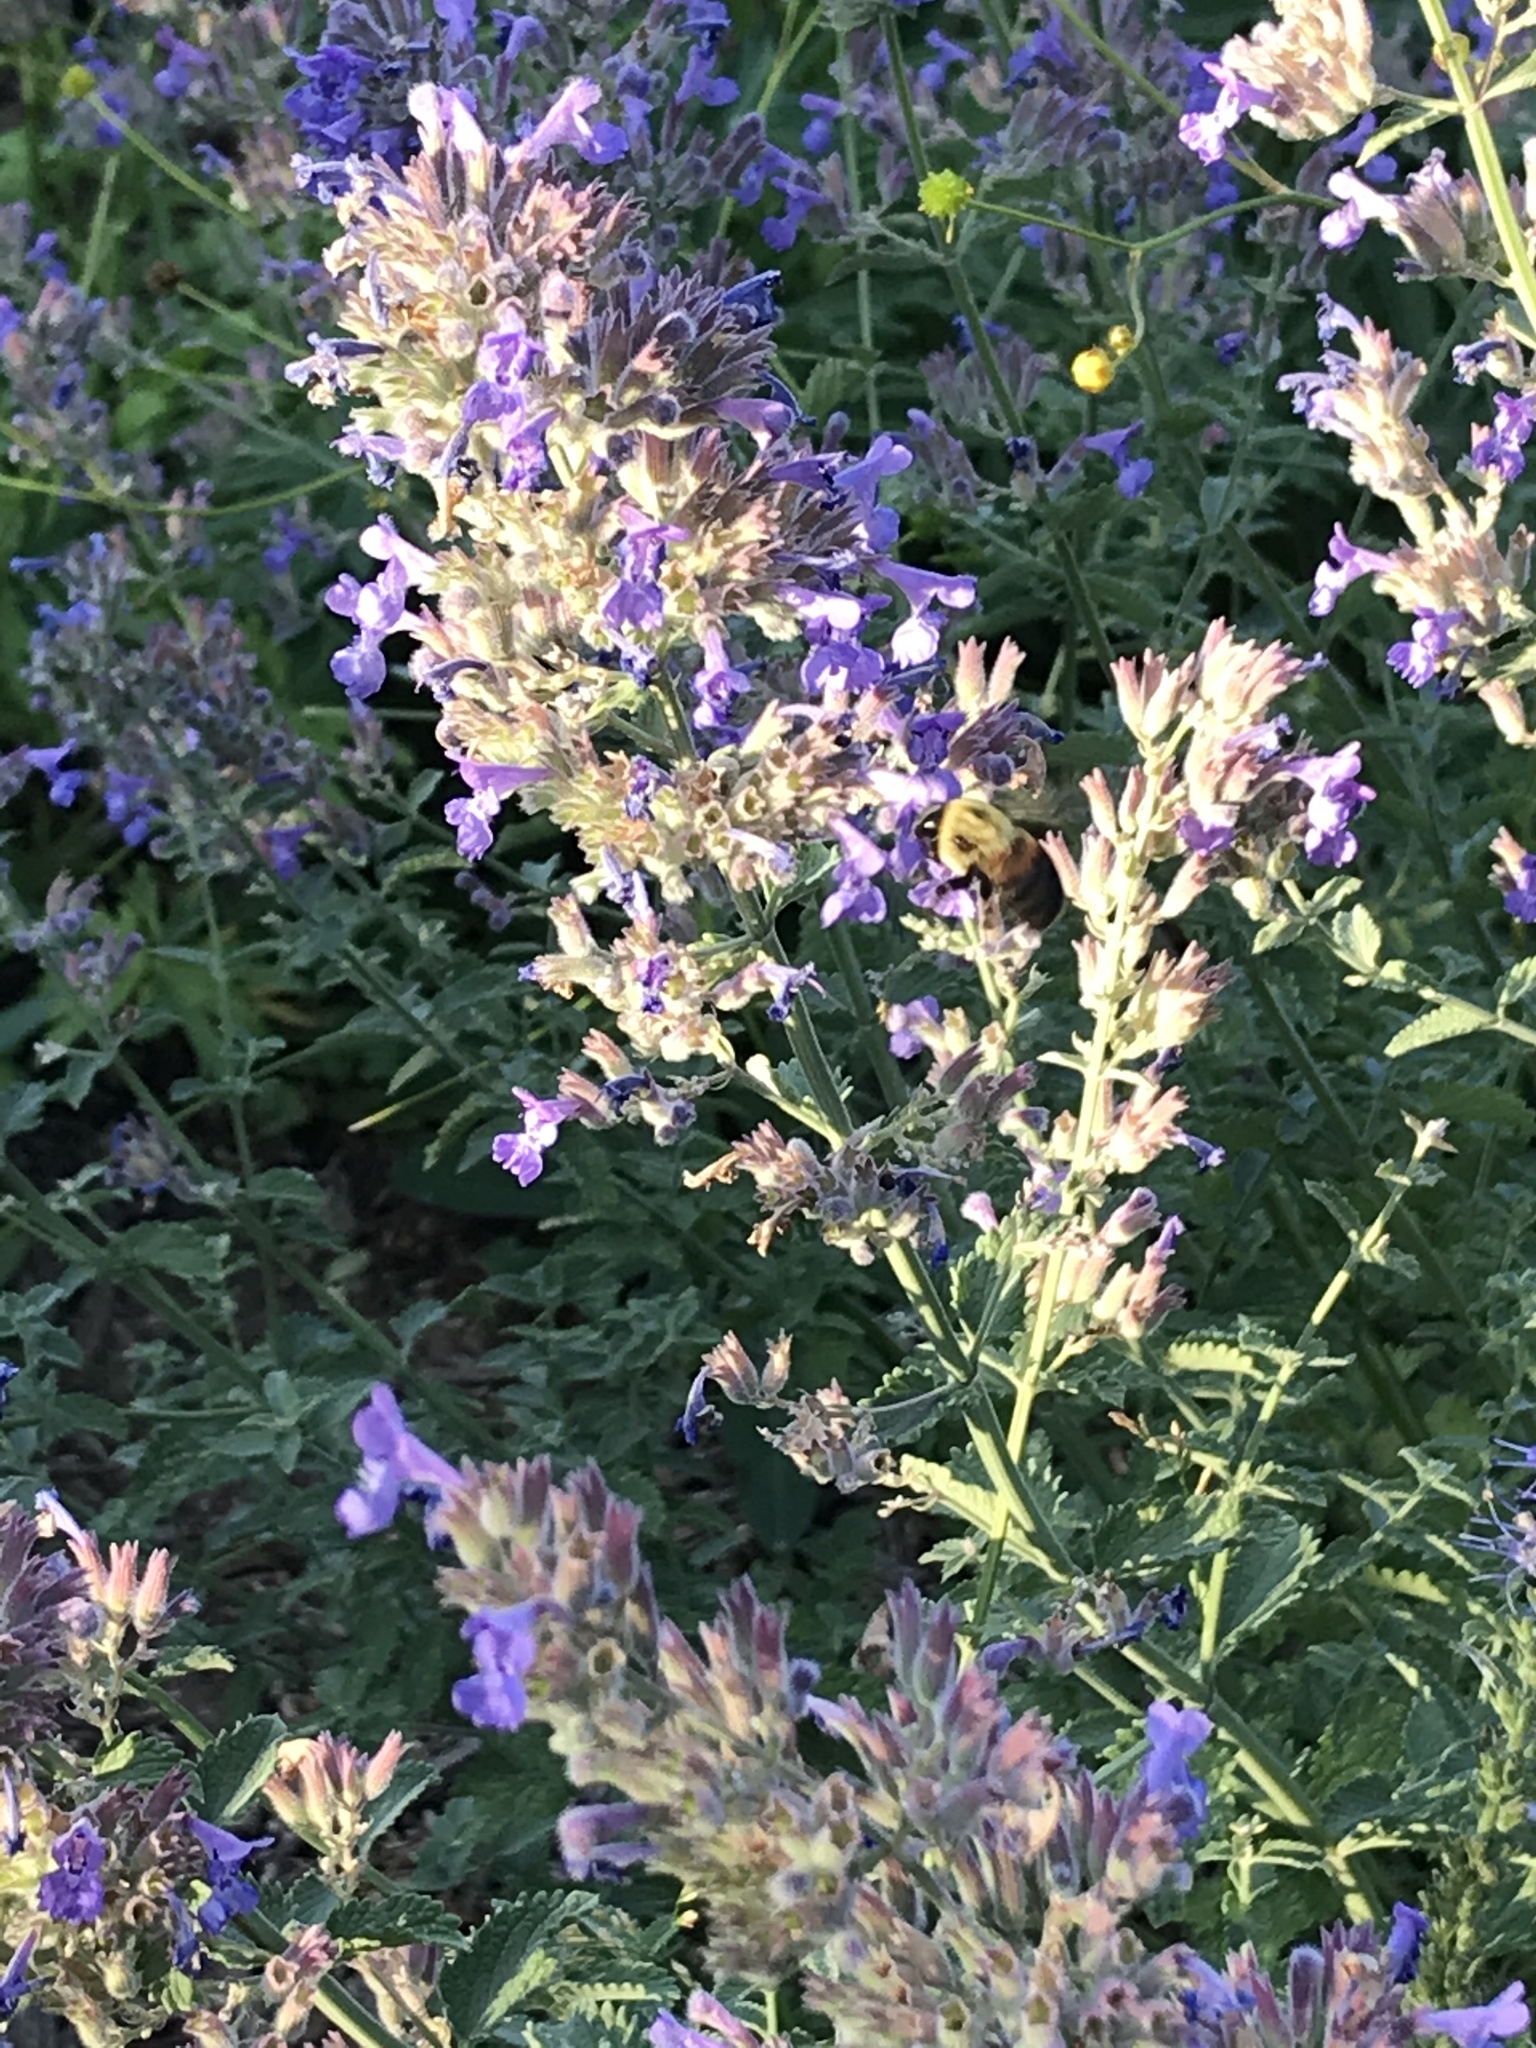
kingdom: Animalia
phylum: Arthropoda
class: Insecta
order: Hymenoptera
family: Apidae
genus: Bombus
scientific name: Bombus griseocollis
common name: Brown-belted bumble bee
